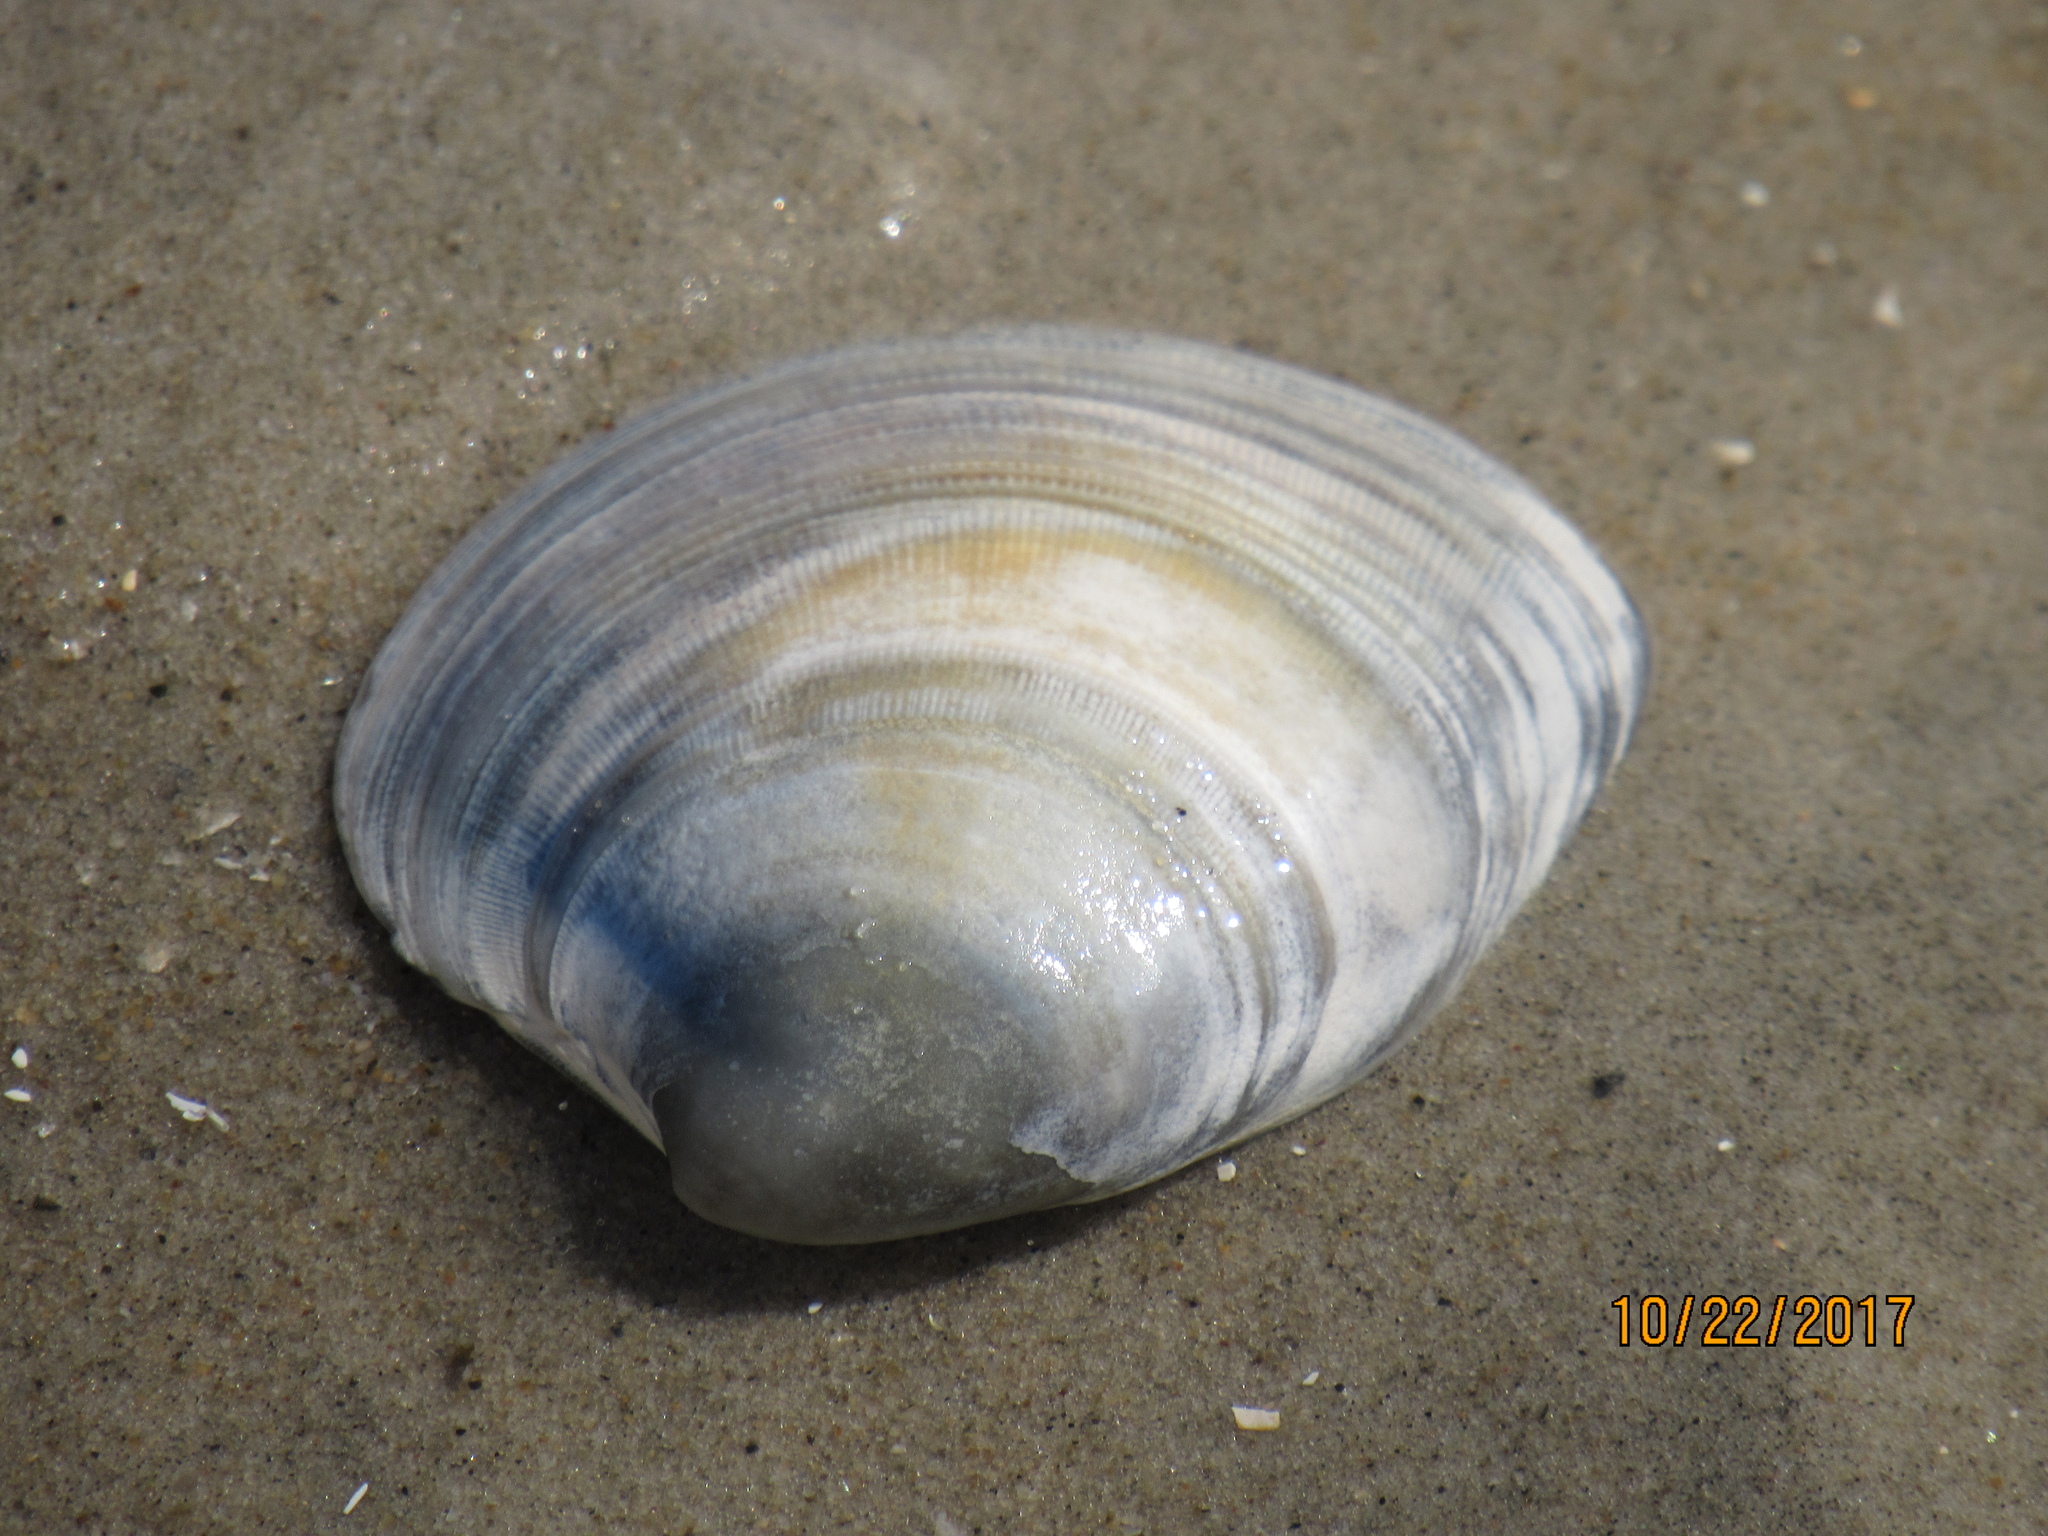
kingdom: Animalia
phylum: Mollusca
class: Bivalvia
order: Venerida
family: Veneridae
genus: Mercenaria
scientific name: Mercenaria mercenaria
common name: American hard-shelled clam
